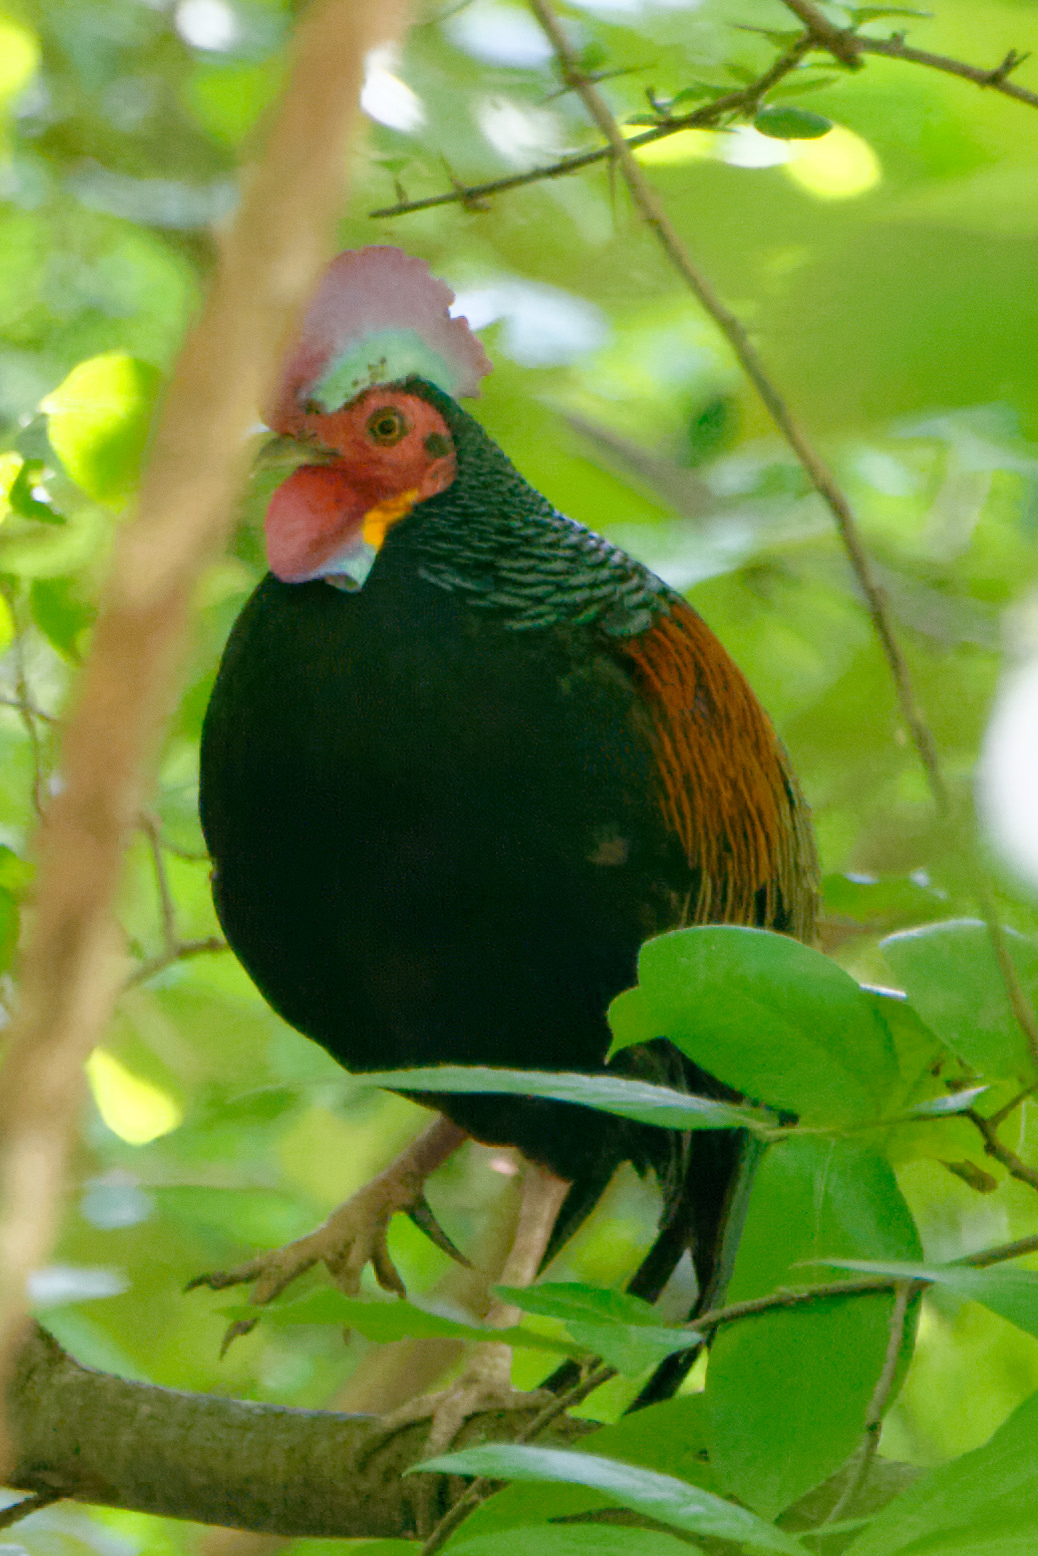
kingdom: Animalia
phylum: Chordata
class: Aves
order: Galliformes
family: Phasianidae
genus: Gallus
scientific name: Gallus varius
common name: Green junglefowl
